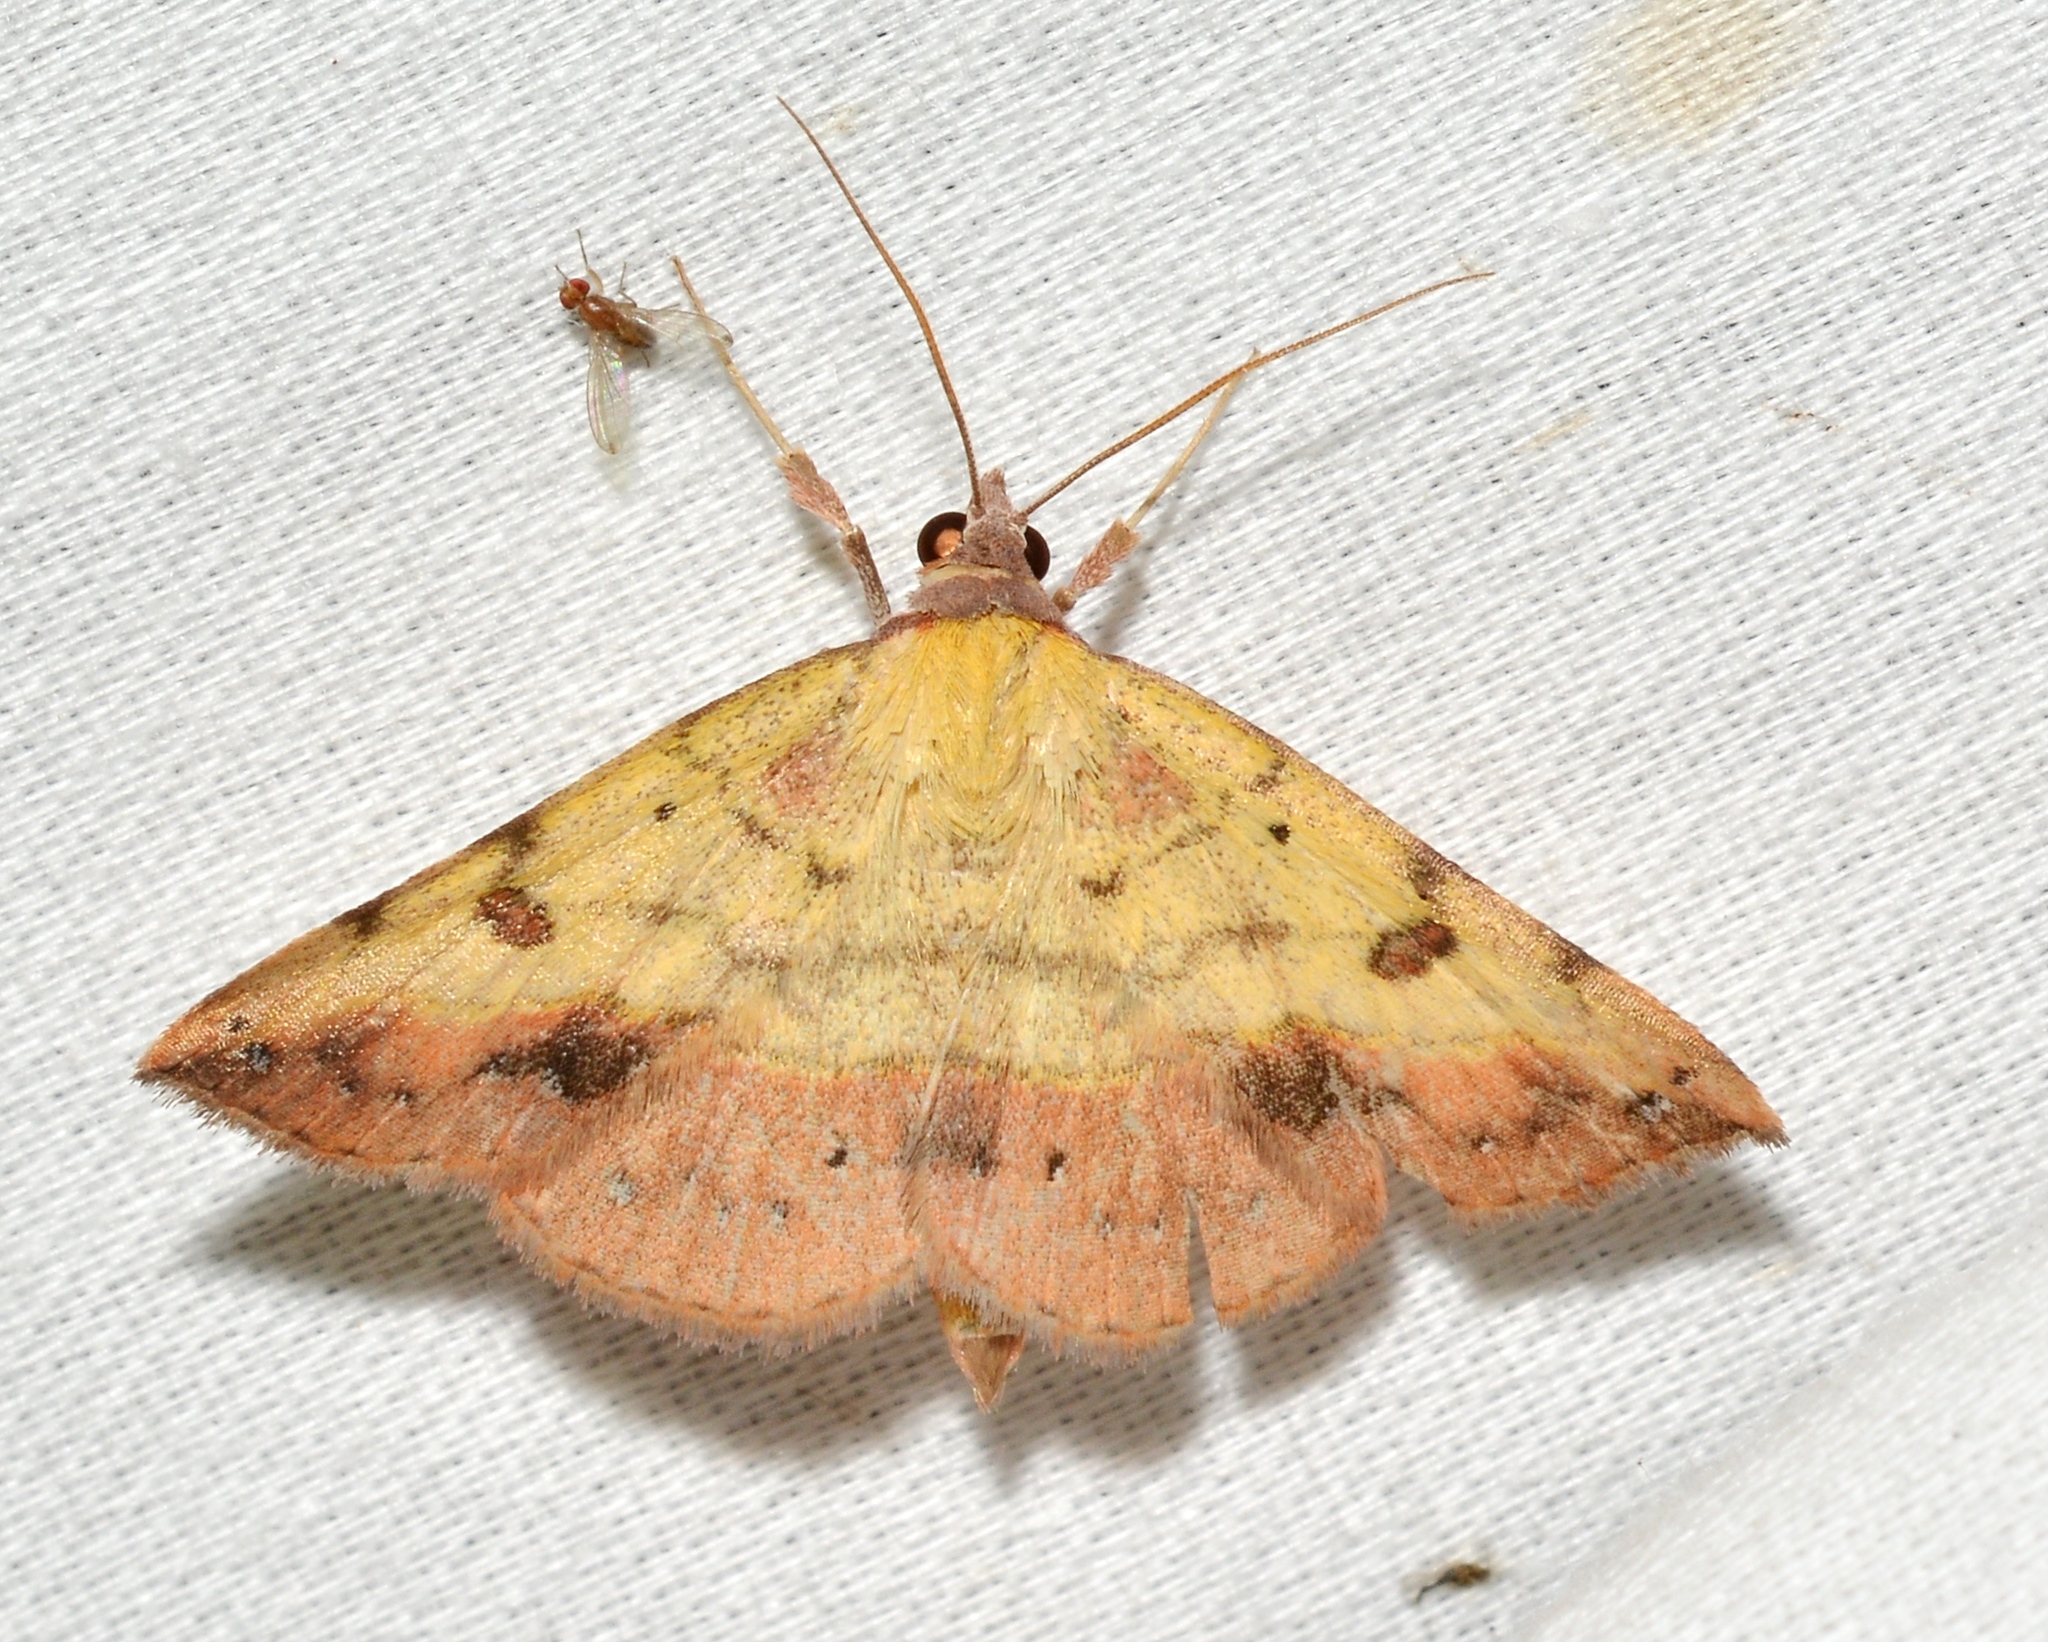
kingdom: Animalia
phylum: Arthropoda
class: Insecta
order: Lepidoptera
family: Erebidae
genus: Hemeroplanis
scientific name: Hemeroplanis scopulepes
